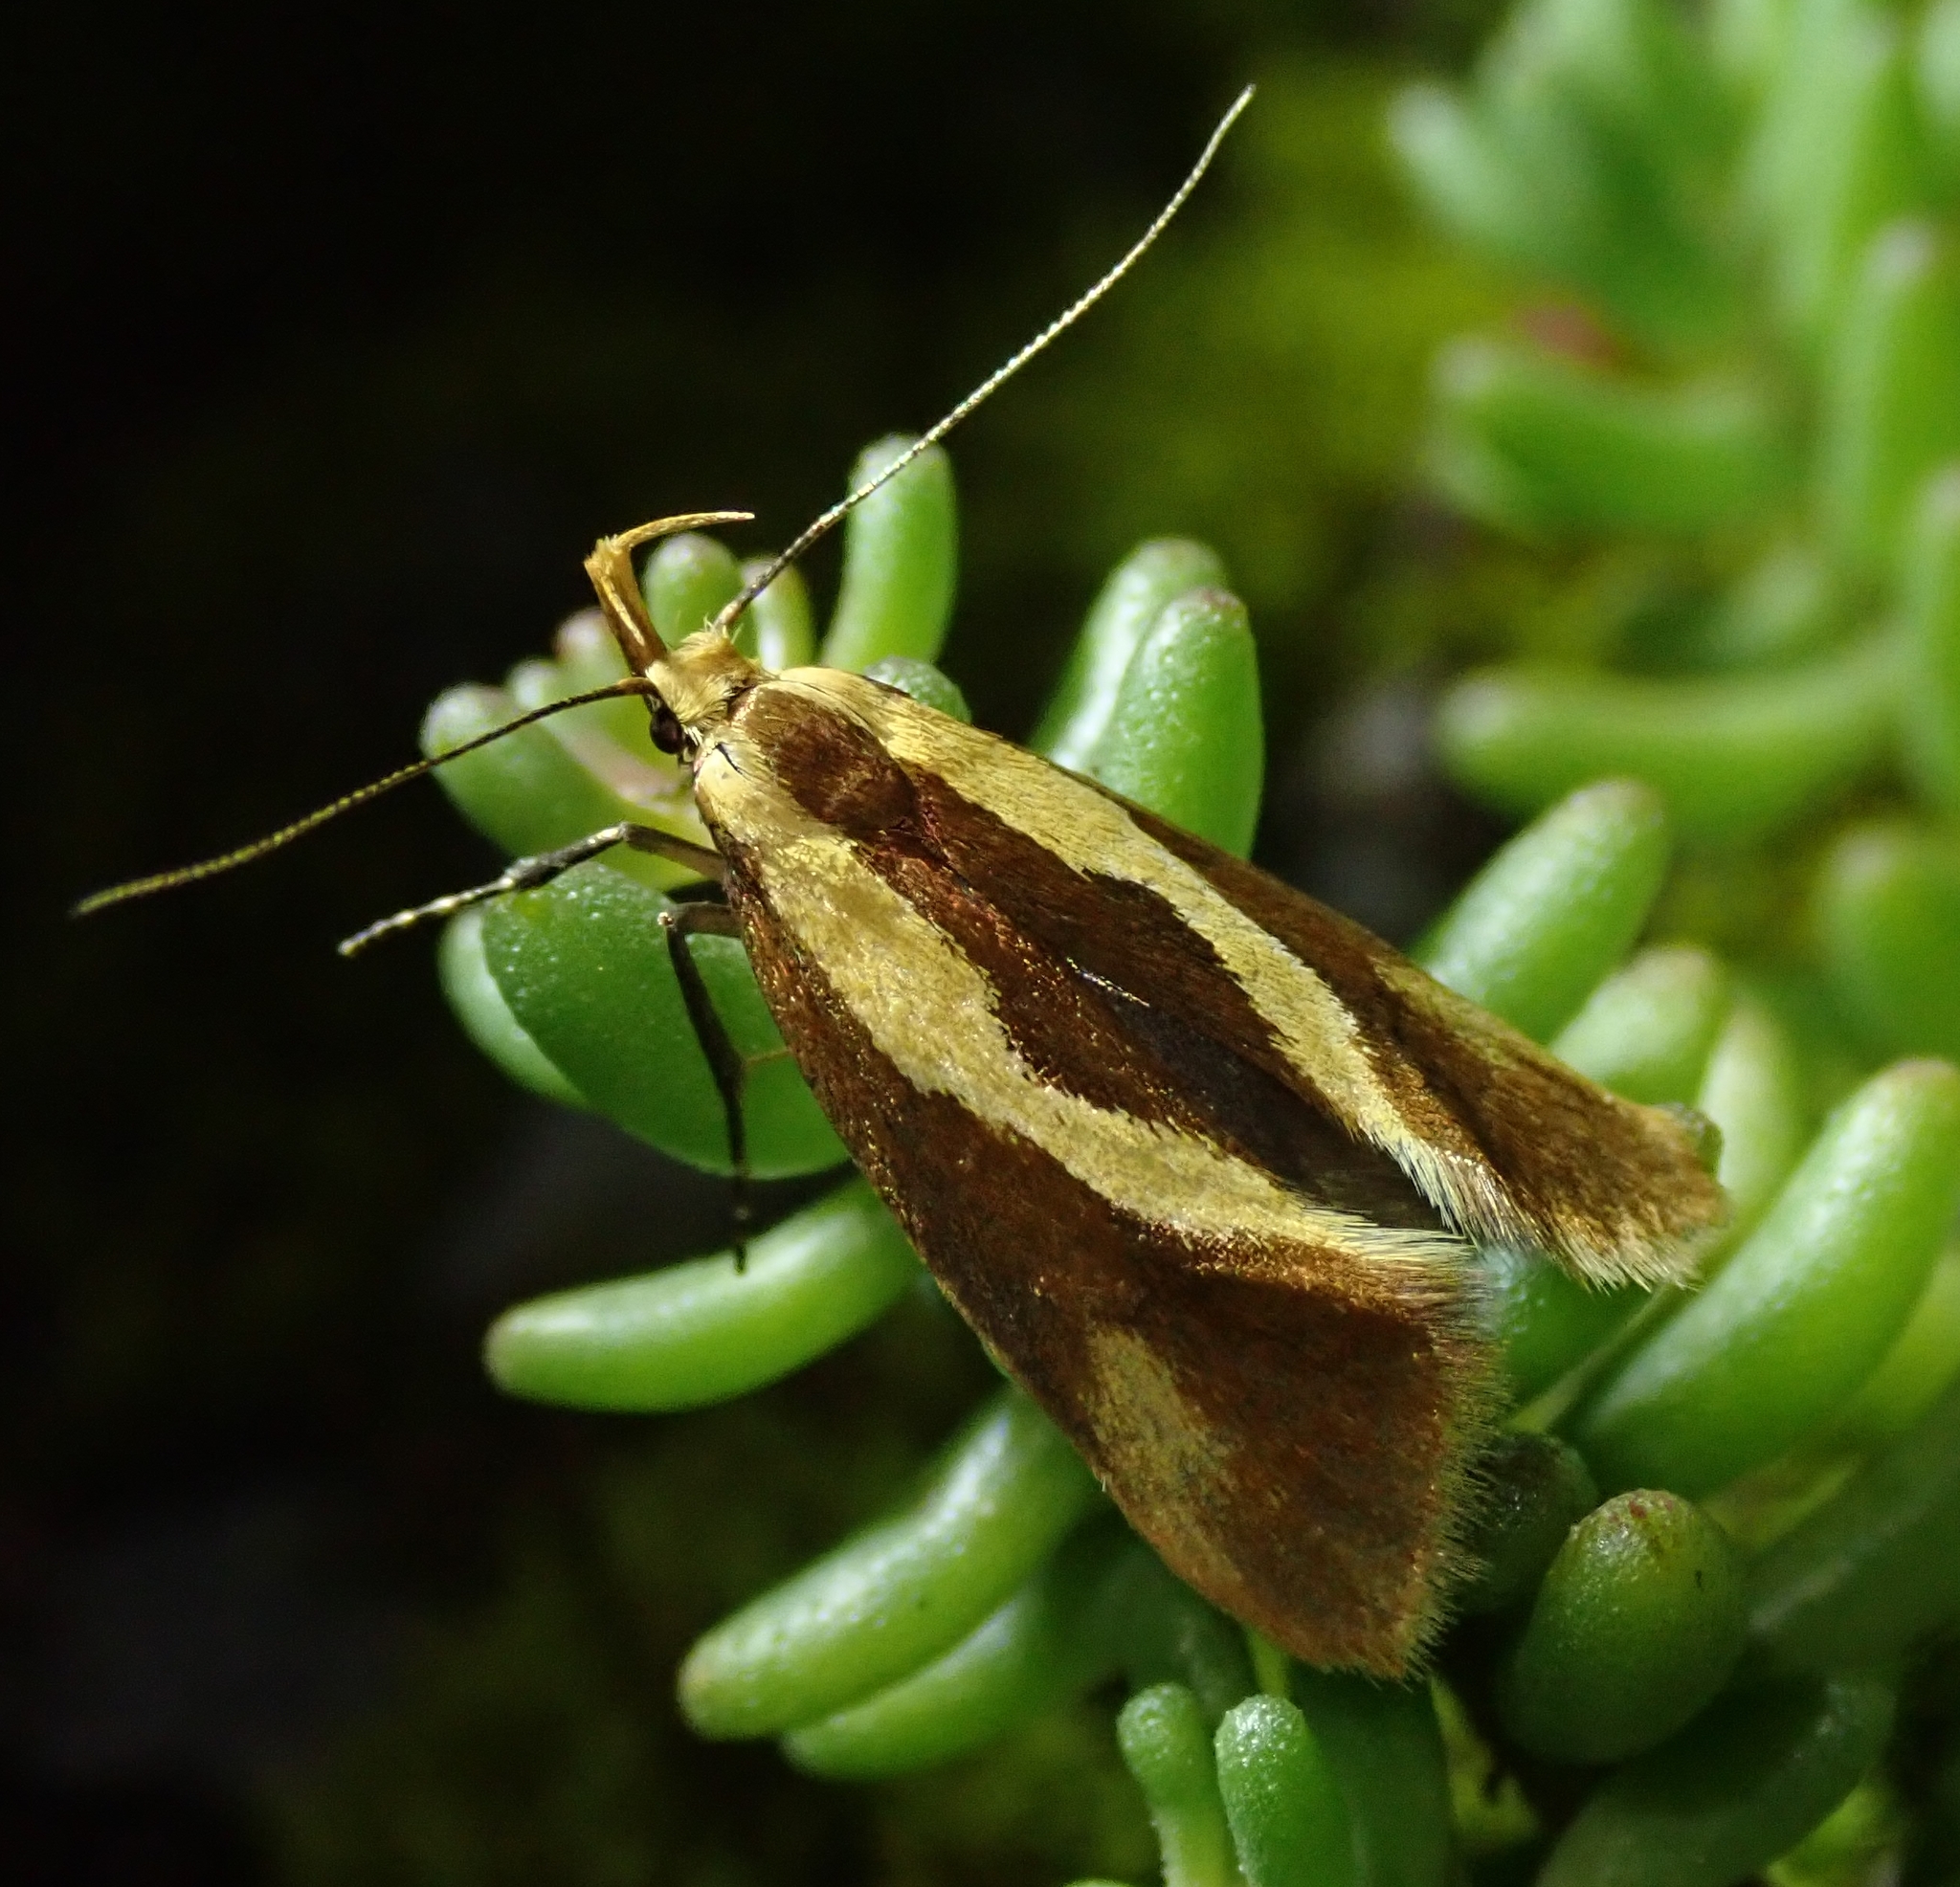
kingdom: Animalia
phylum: Arthropoda
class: Insecta
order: Lepidoptera
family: Oecophoridae
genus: Harpella
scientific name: Harpella forficella
